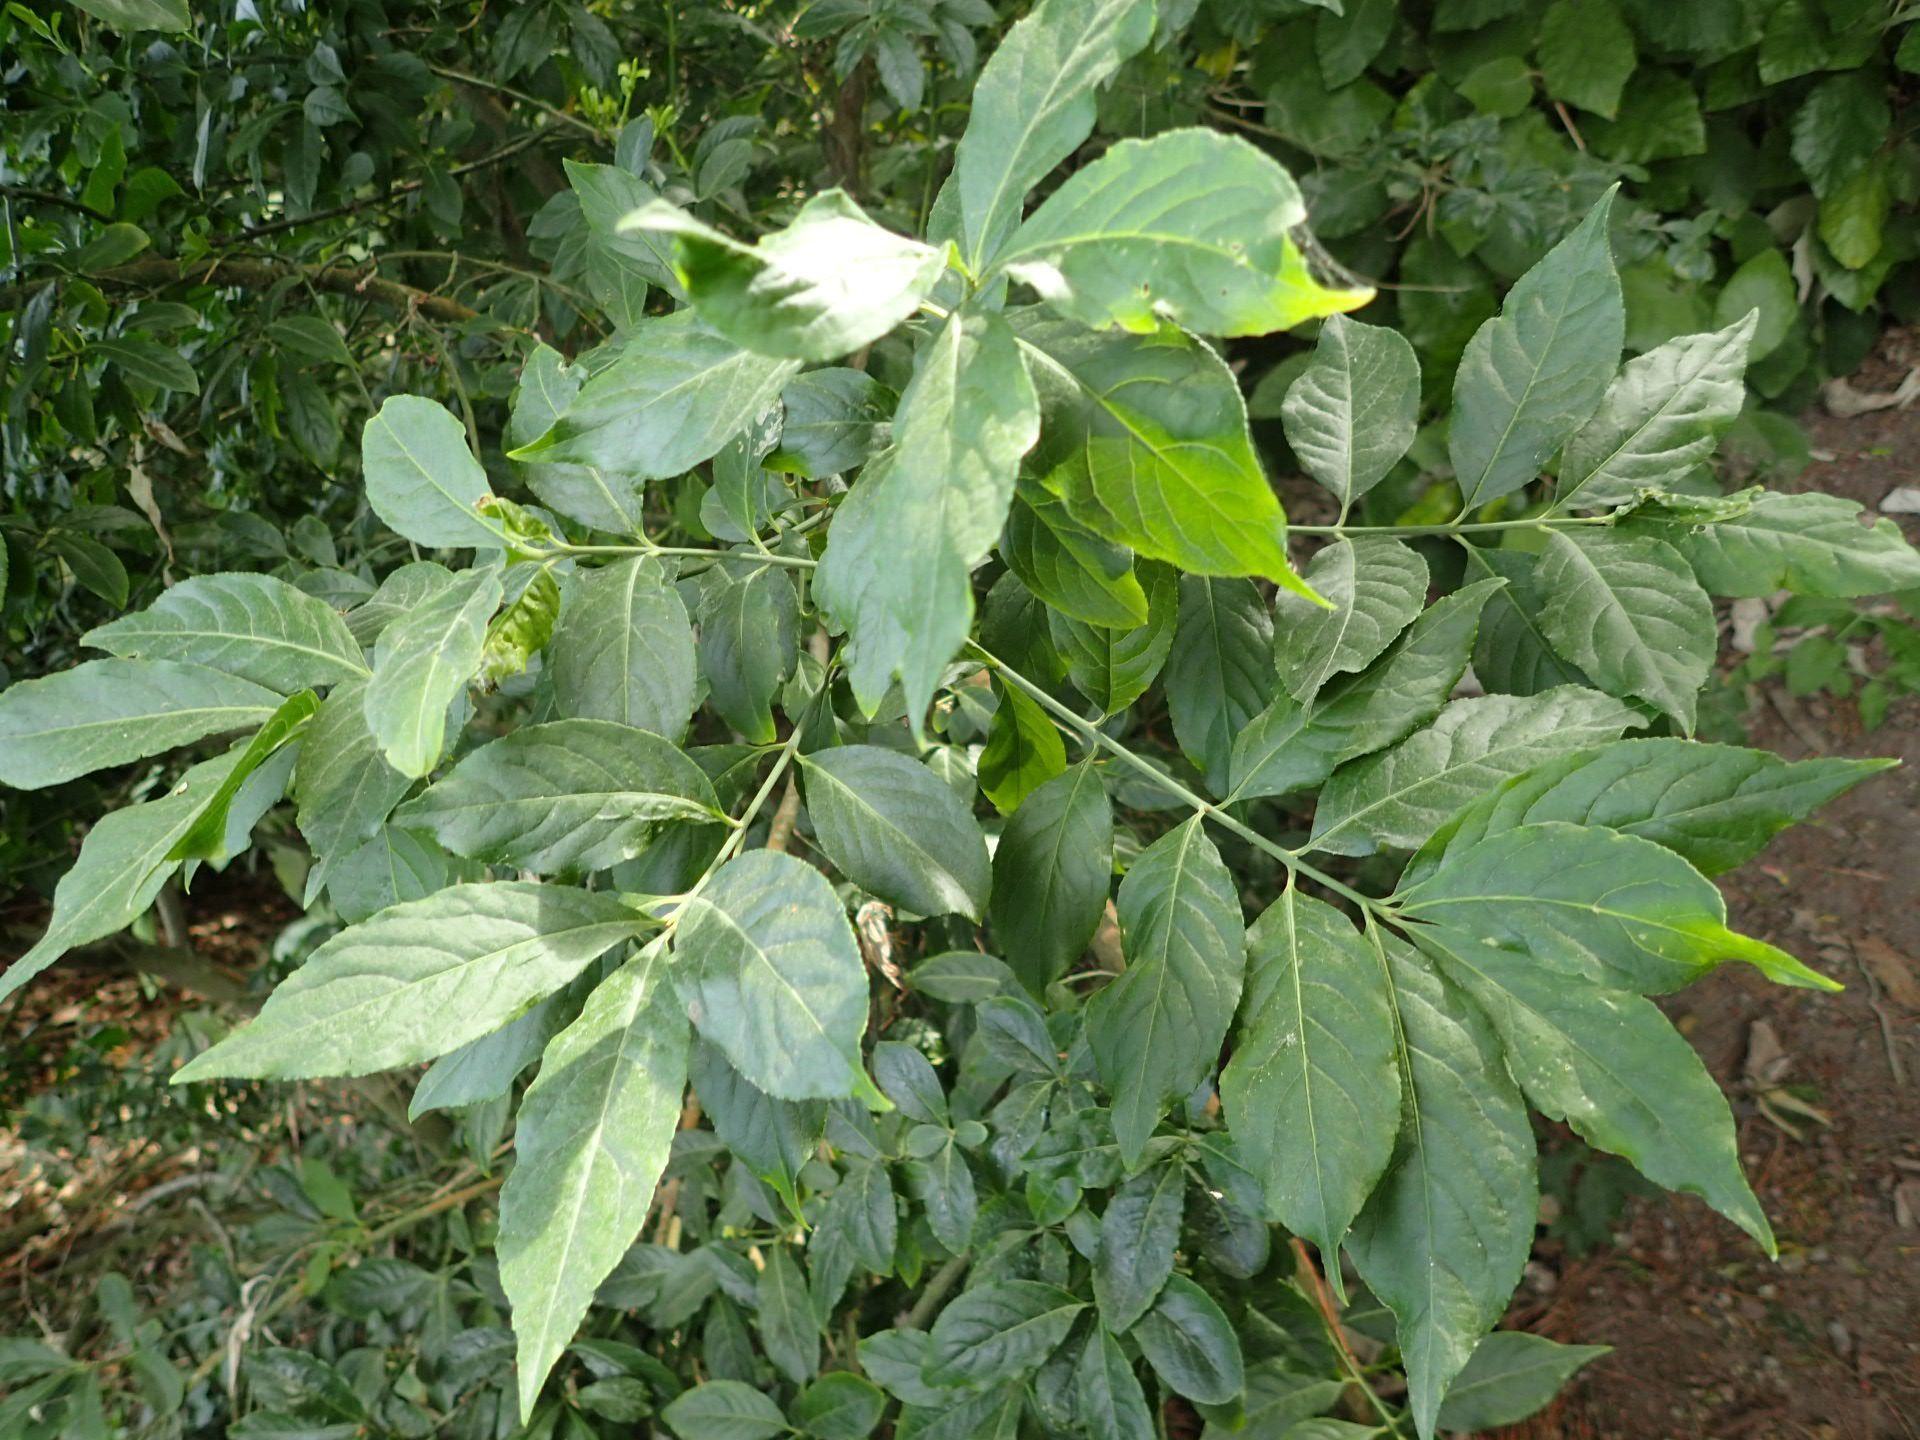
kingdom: Plantae
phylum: Tracheophyta
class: Magnoliopsida
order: Celastrales
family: Celastraceae
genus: Euonymus
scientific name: Euonymus europaeus
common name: Spindle
